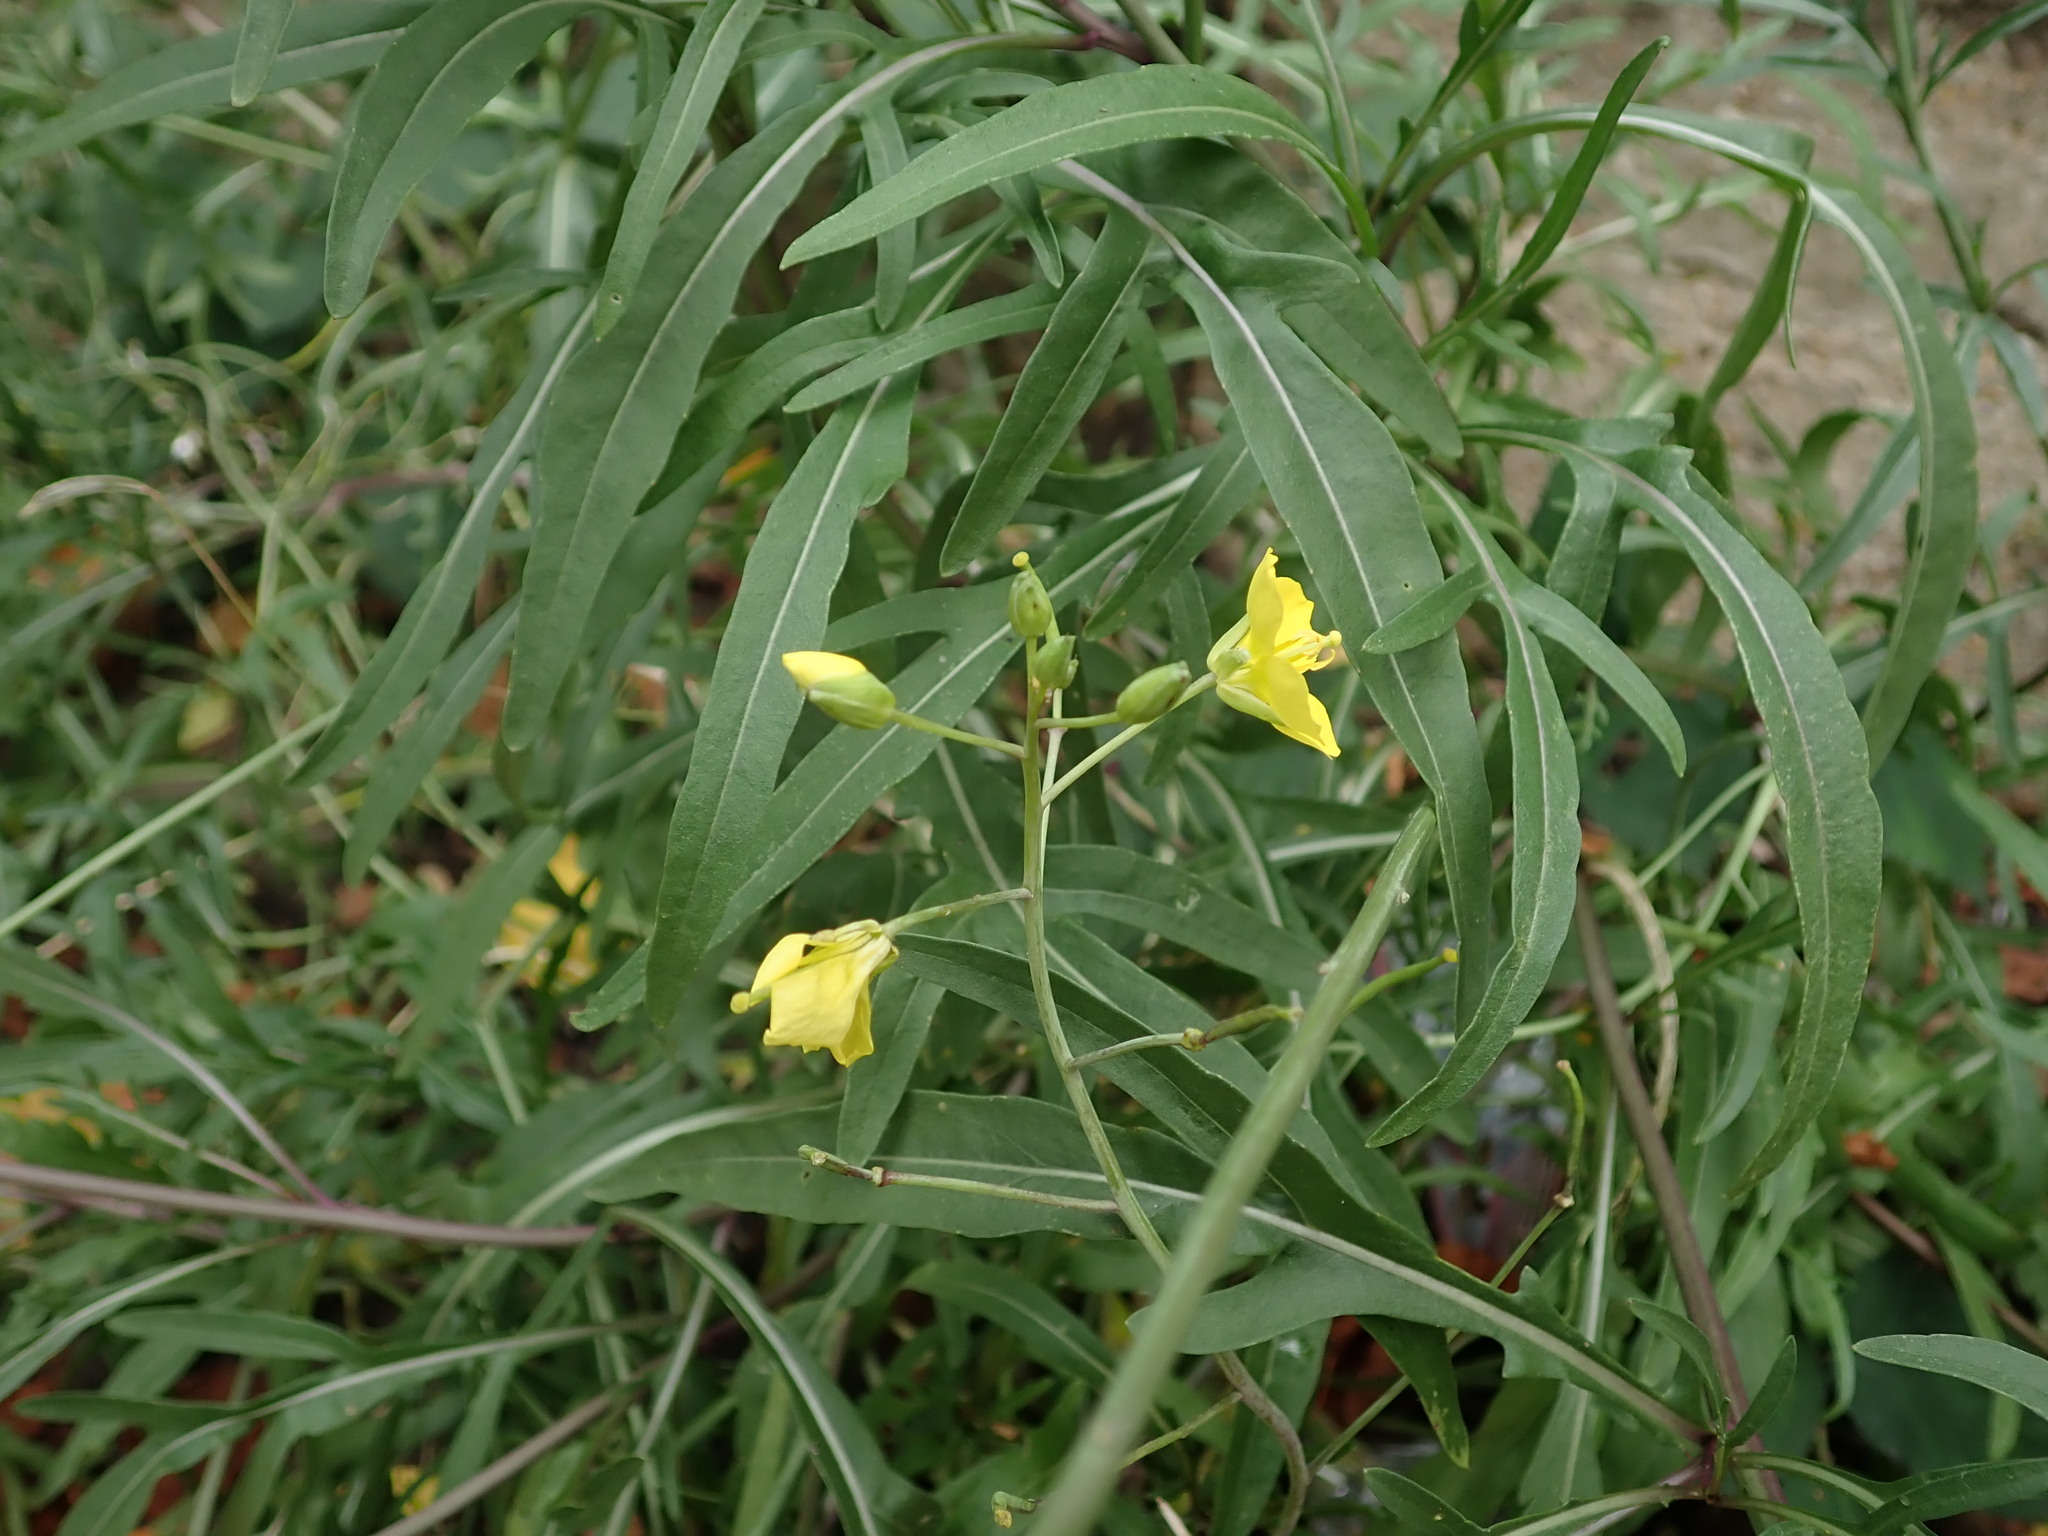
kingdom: Plantae
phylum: Tracheophyta
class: Magnoliopsida
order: Brassicales
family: Brassicaceae
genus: Diplotaxis
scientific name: Diplotaxis tenuifolia
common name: Perennial wall-rocket
